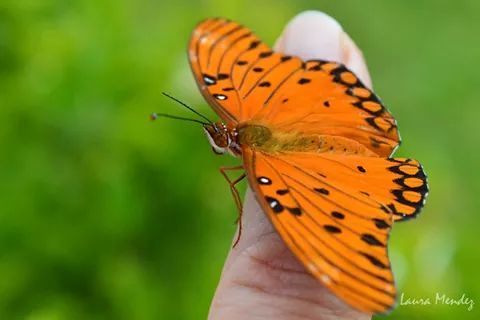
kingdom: Animalia
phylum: Arthropoda
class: Insecta
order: Lepidoptera
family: Nymphalidae
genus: Dione
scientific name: Dione vanillae
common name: Gulf fritillary
